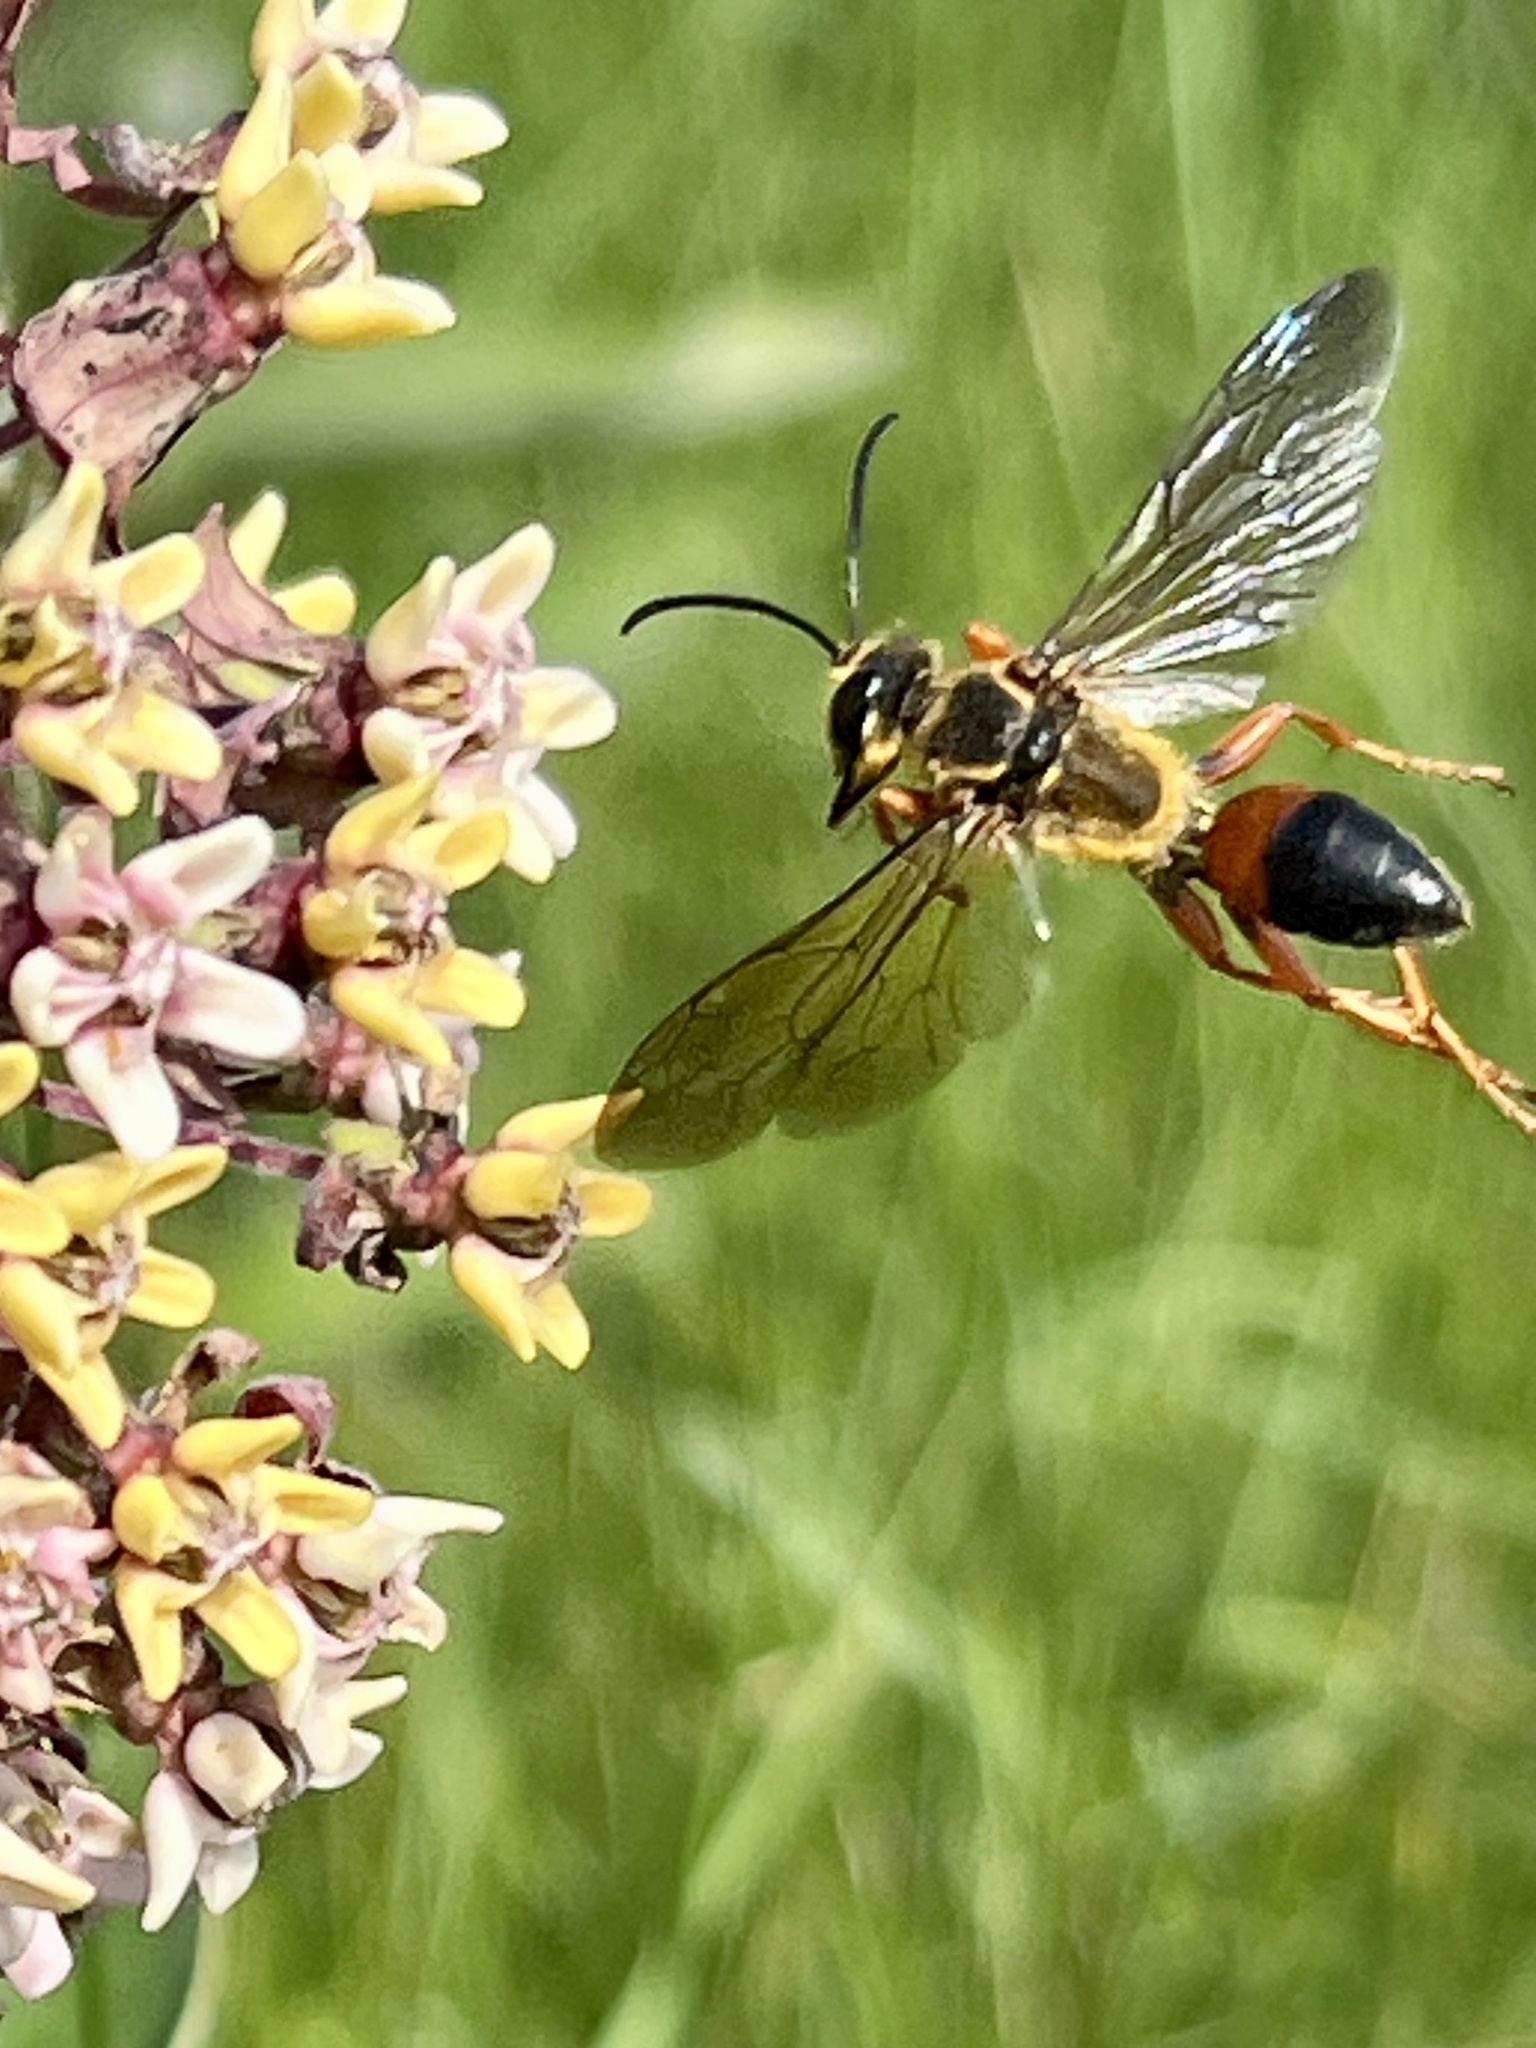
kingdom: Animalia
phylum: Arthropoda
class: Insecta
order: Hymenoptera
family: Sphecidae
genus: Sphex
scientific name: Sphex ichneumoneus
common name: Great golden digger wasp
